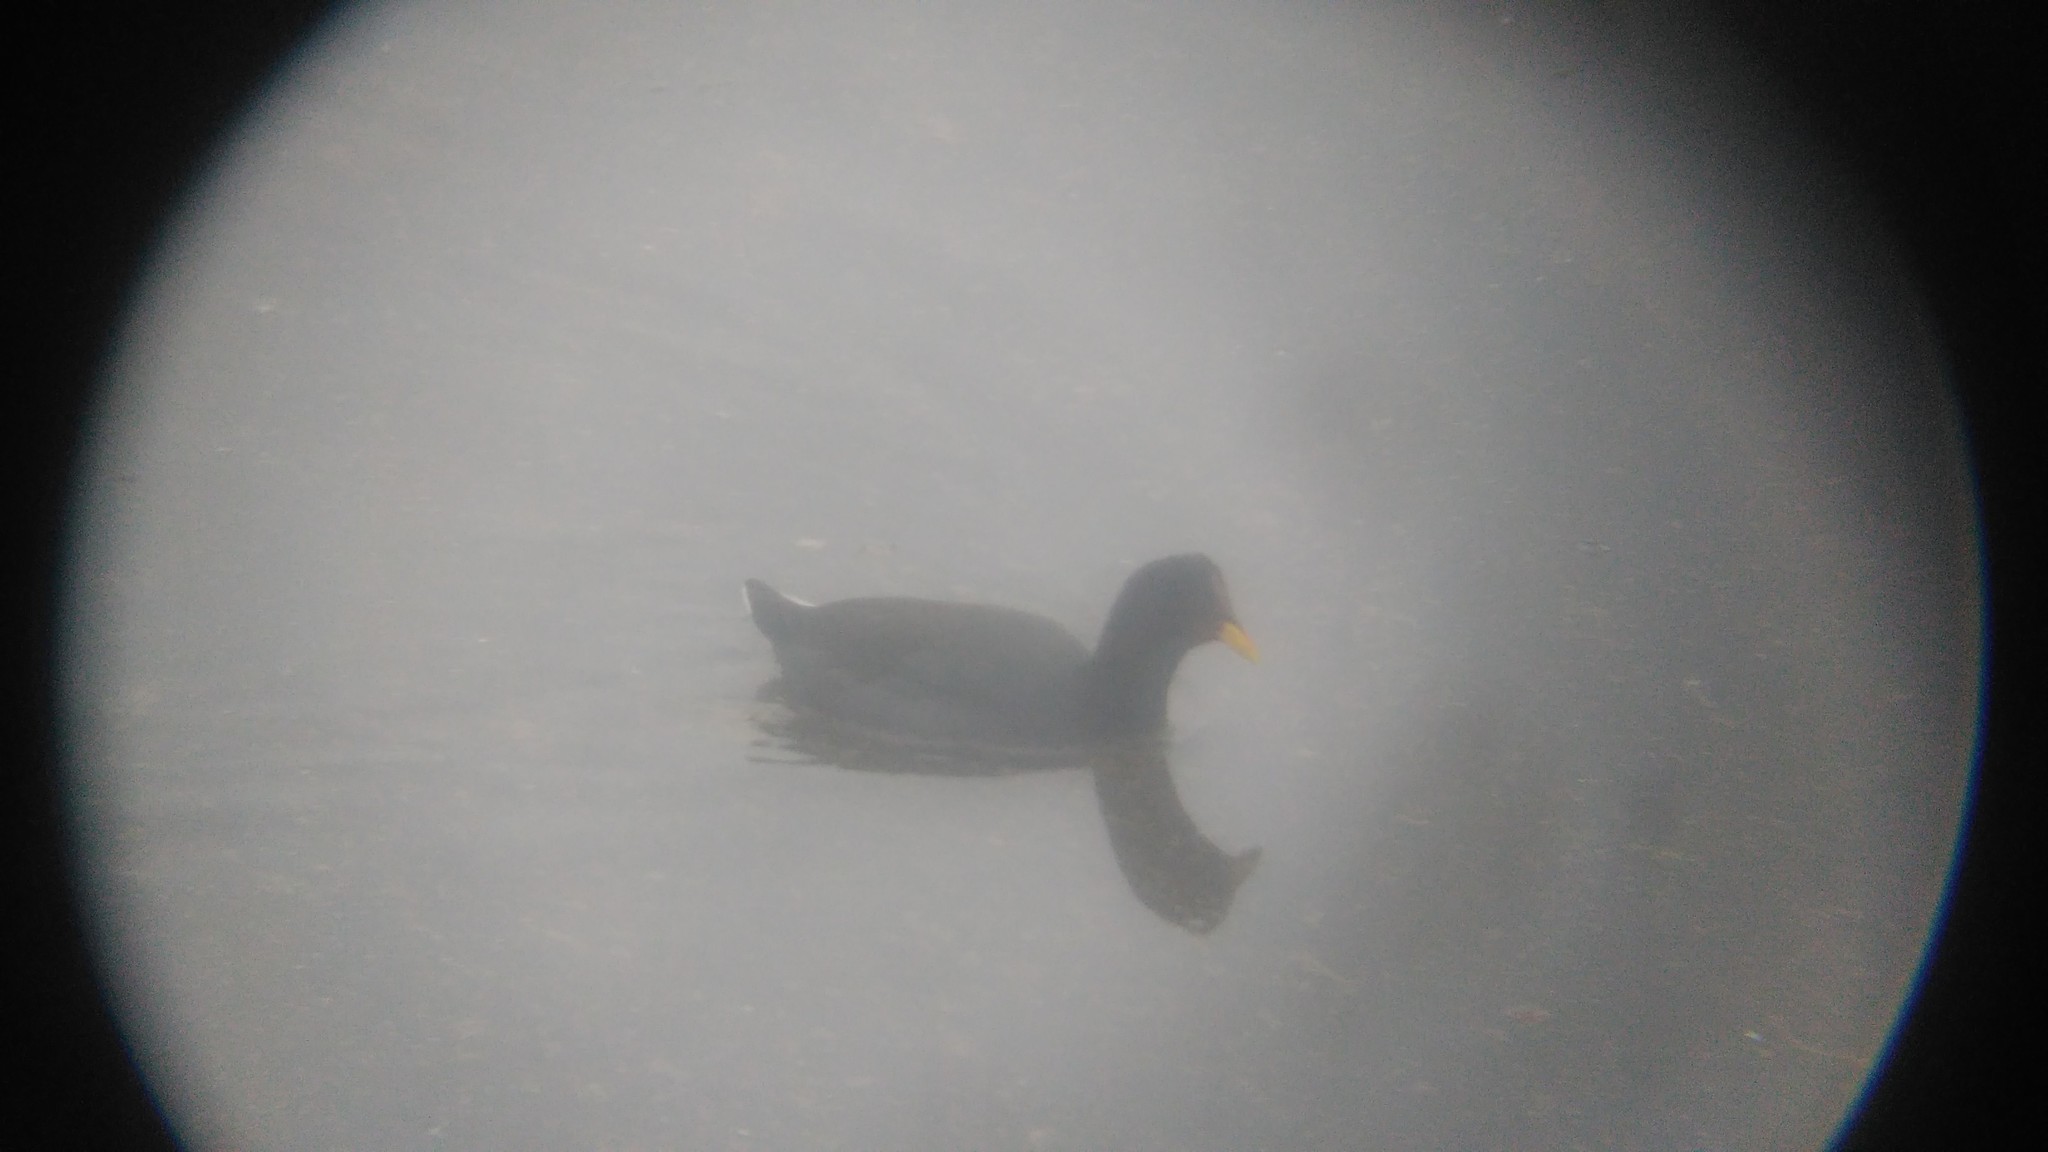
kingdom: Animalia
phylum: Chordata
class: Aves
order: Gruiformes
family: Rallidae
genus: Fulica
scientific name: Fulica rufifrons
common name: Red-fronted coot
